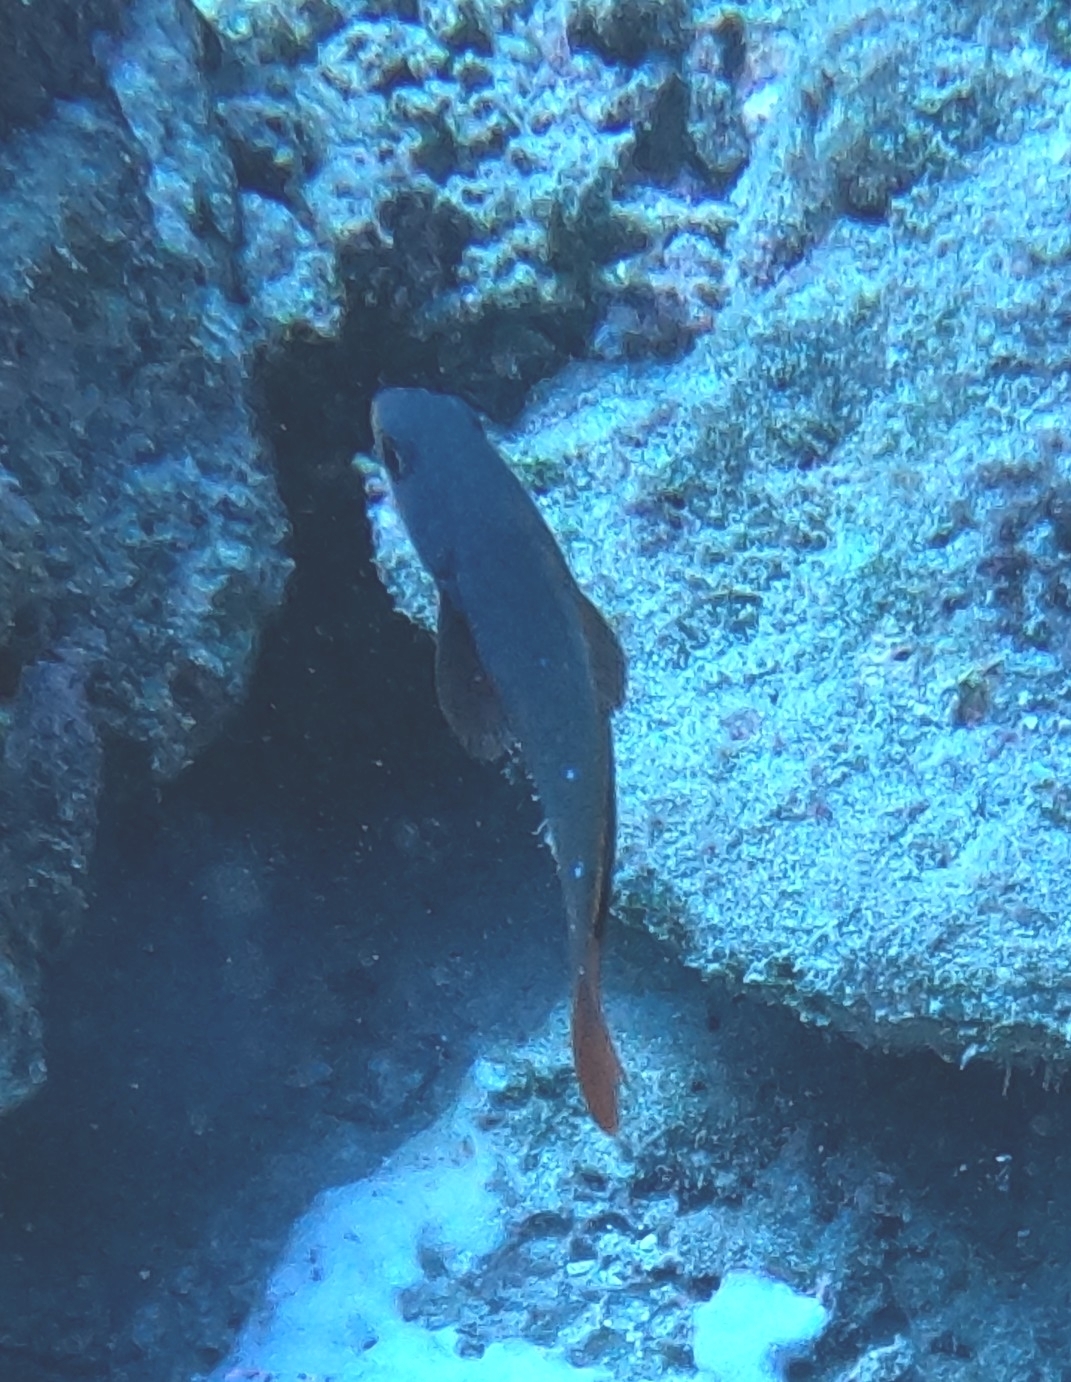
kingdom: Animalia
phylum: Chordata
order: Perciformes
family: Serranidae
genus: Paranthias
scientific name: Paranthias colonus
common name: Pacific creole-fish
